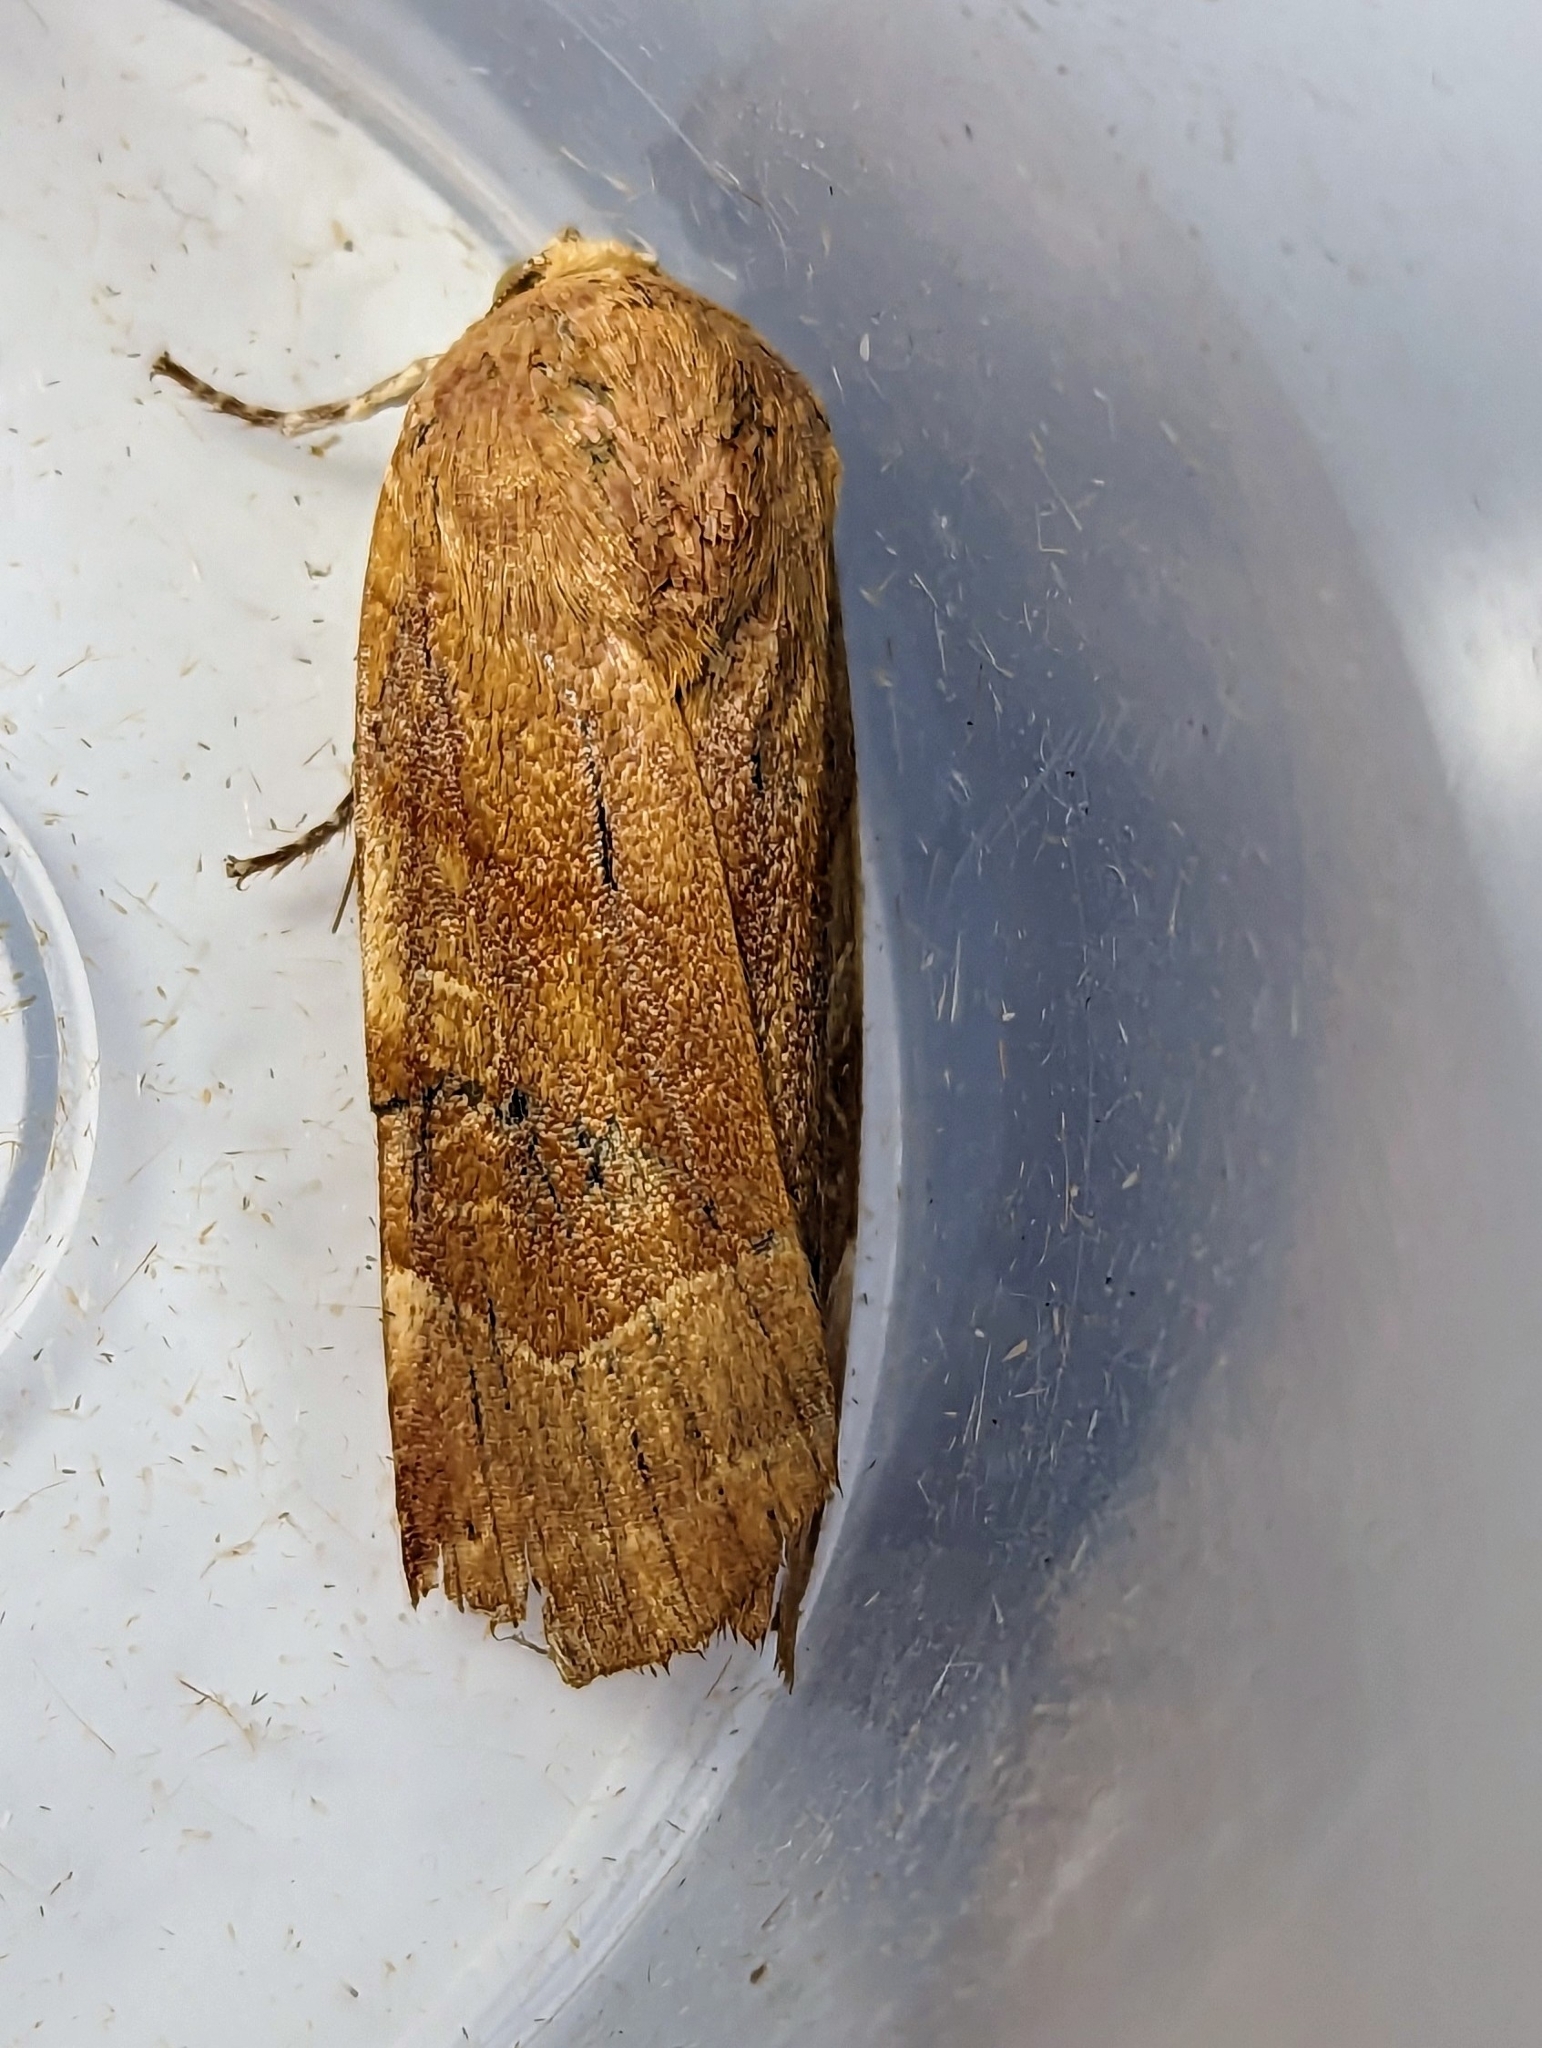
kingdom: Animalia
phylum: Arthropoda
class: Insecta
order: Lepidoptera
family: Noctuidae
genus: Noctua
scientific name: Noctua fimbriata
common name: Broad-bordered yellow underwing
